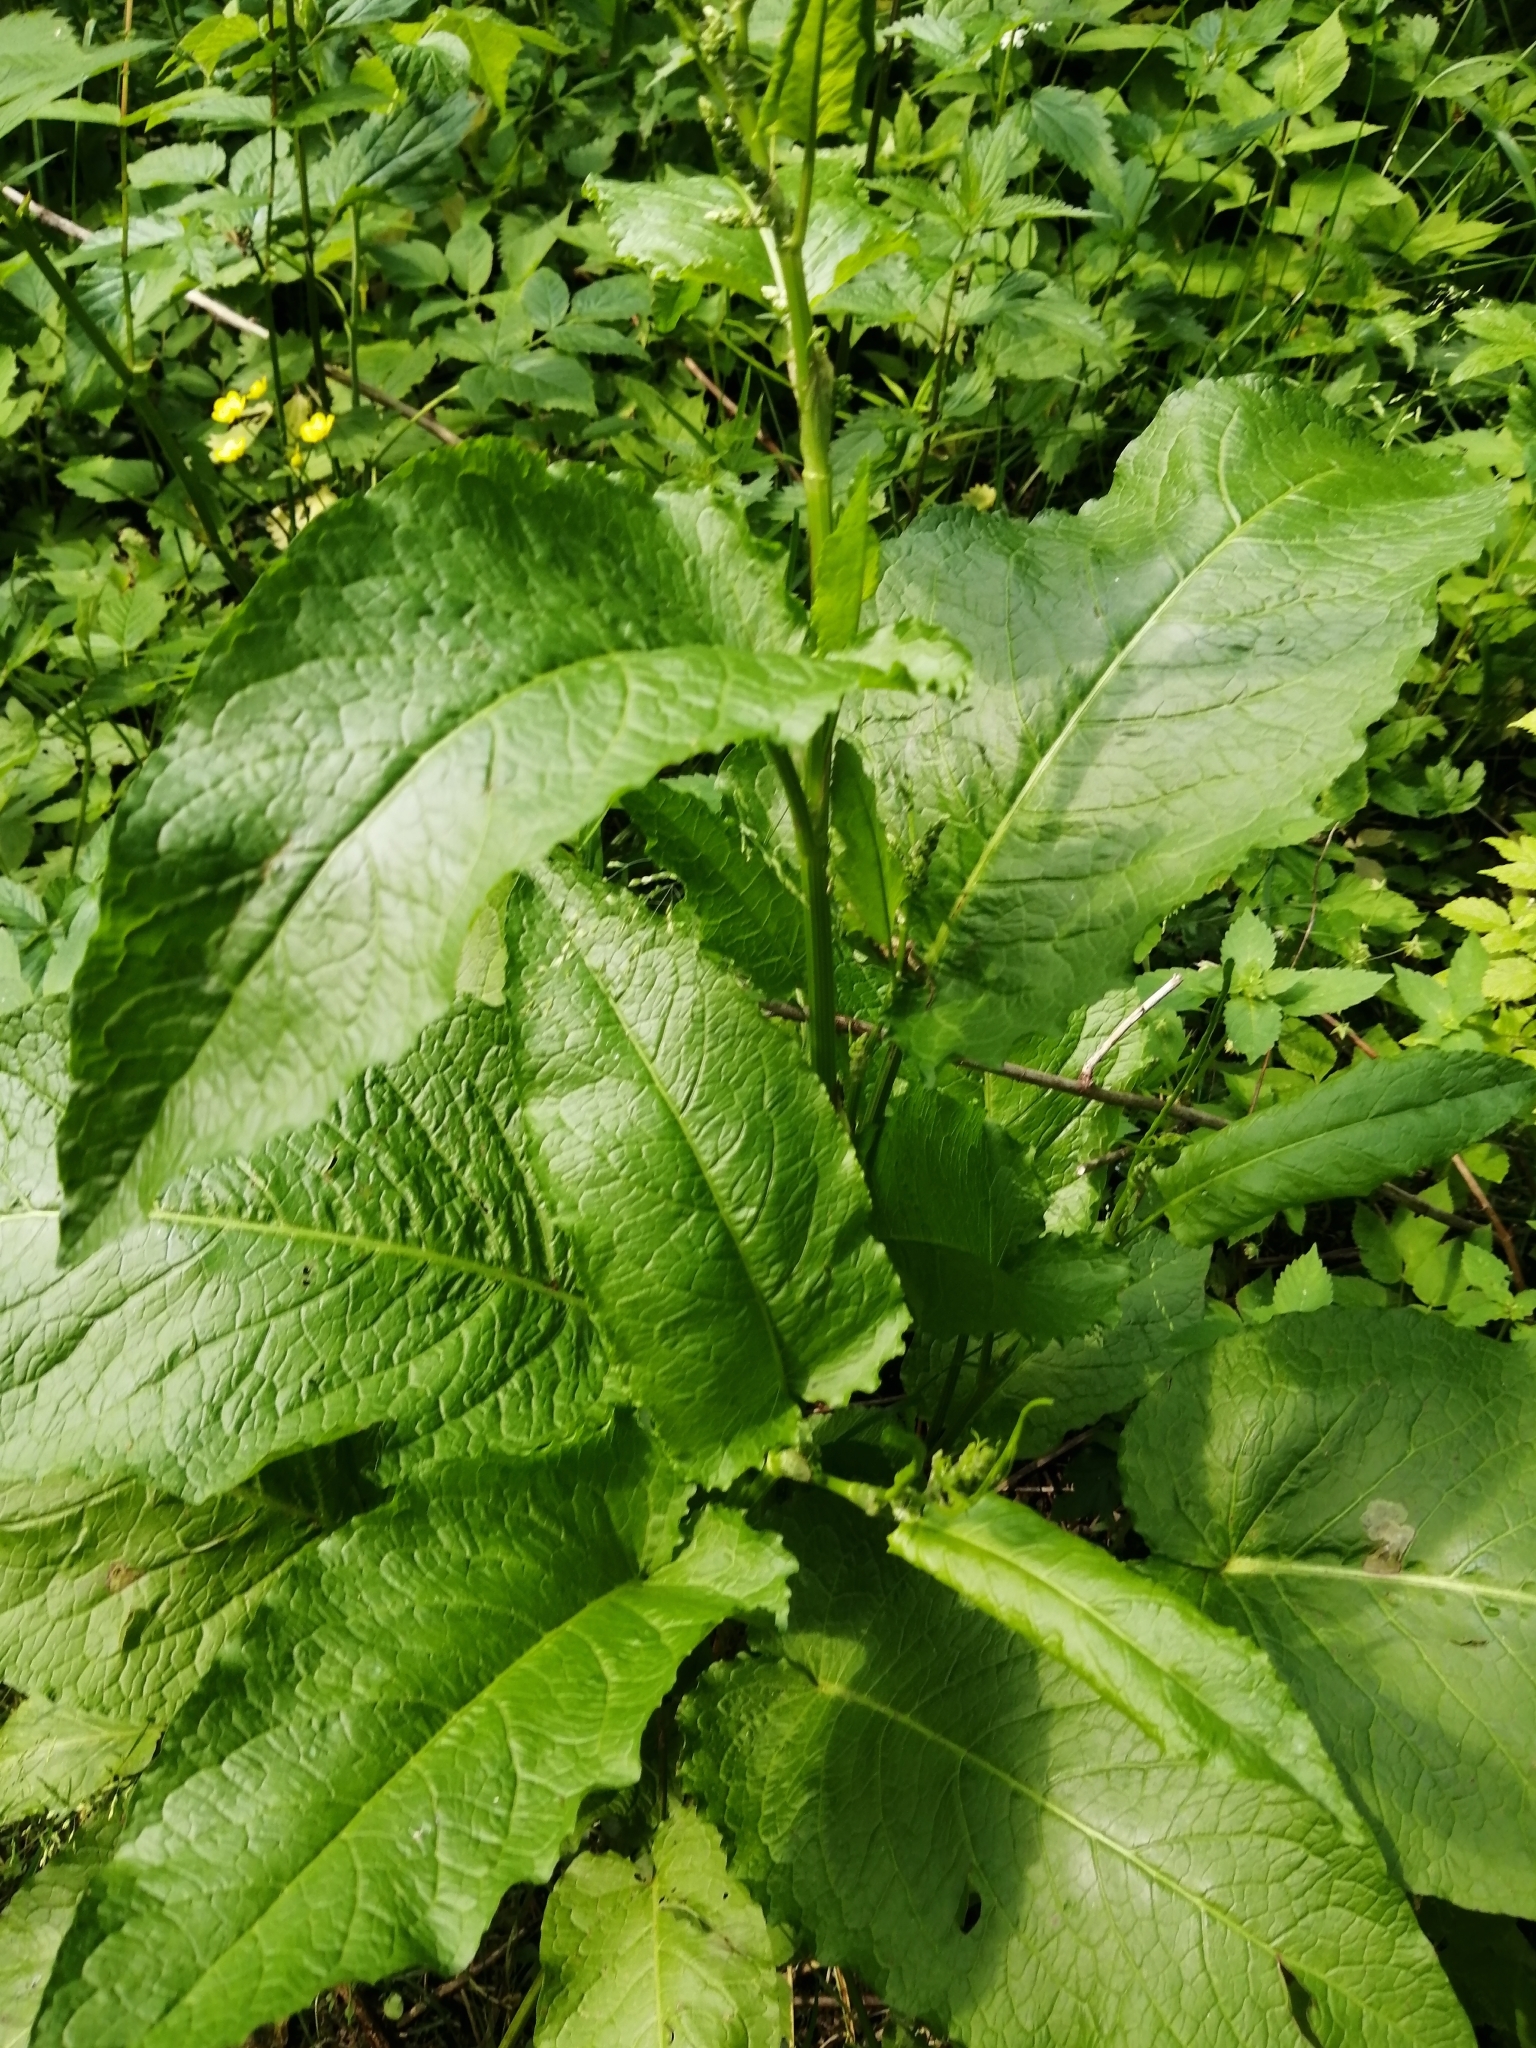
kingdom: Plantae
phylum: Tracheophyta
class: Magnoliopsida
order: Caryophyllales
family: Polygonaceae
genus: Rumex
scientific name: Rumex obtusifolius
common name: Bitter dock
